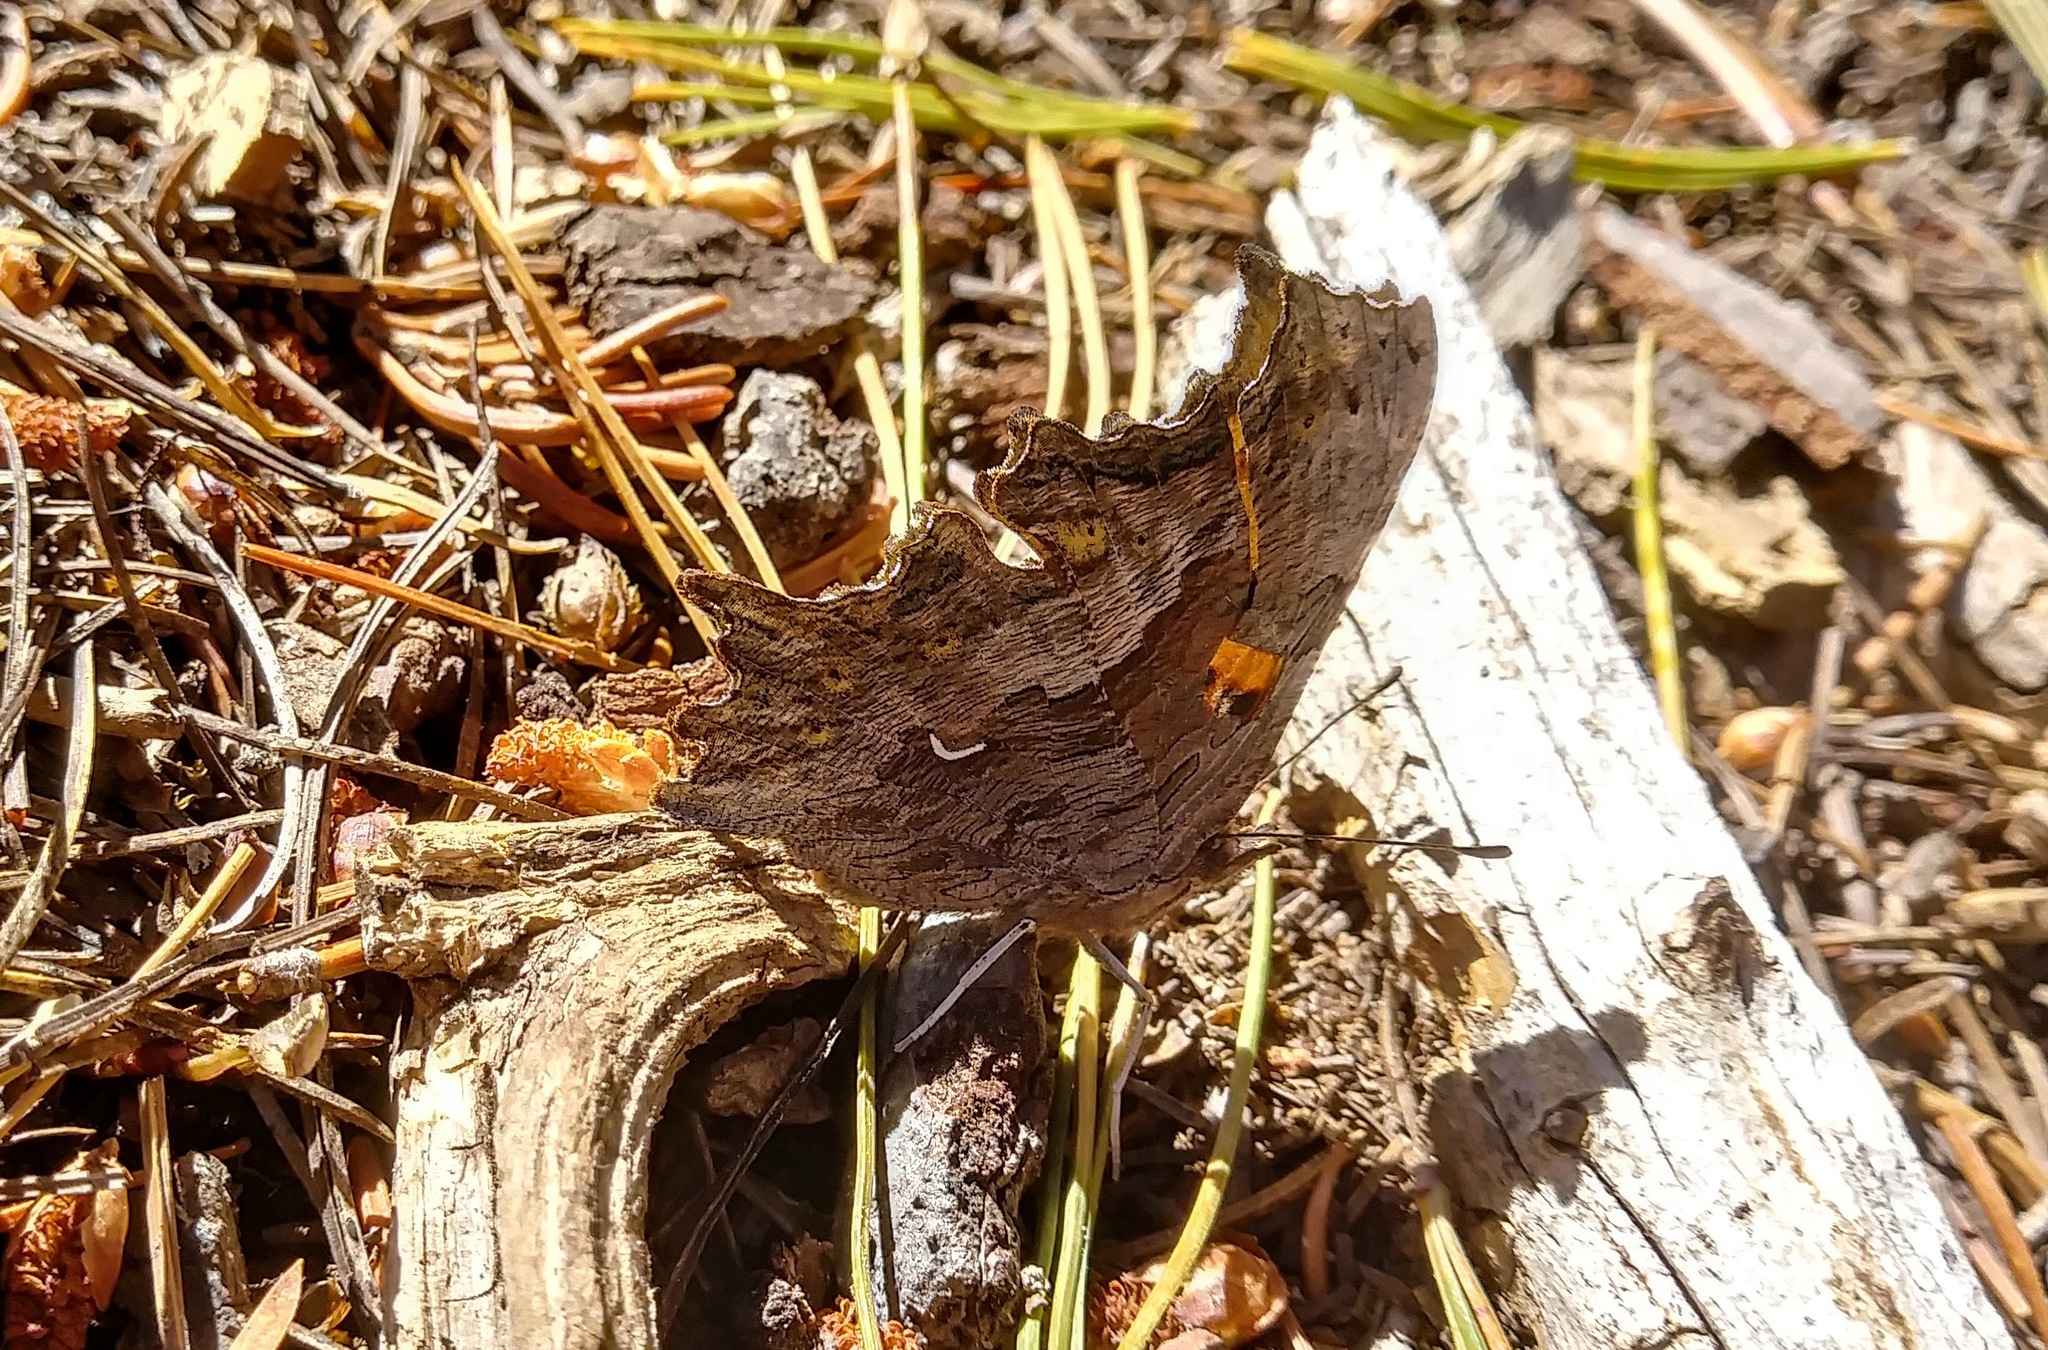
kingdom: Animalia
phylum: Arthropoda
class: Insecta
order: Lepidoptera
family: Nymphalidae
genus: Polygonia
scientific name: Polygonia gracilis
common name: Hoary comma
